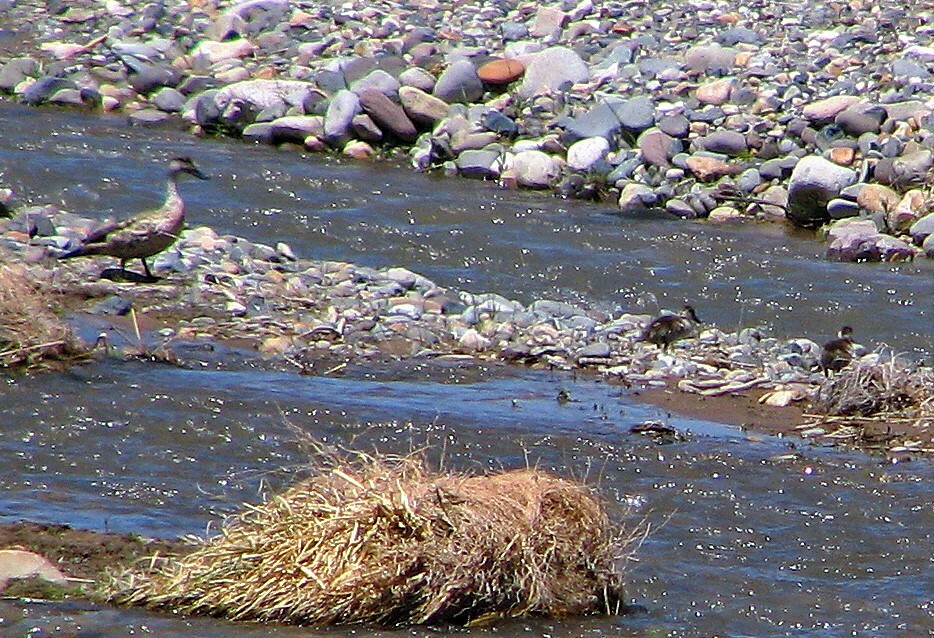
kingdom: Animalia
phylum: Chordata
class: Aves
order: Anseriformes
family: Anatidae
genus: Lophonetta
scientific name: Lophonetta specularioides
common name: Crested duck
